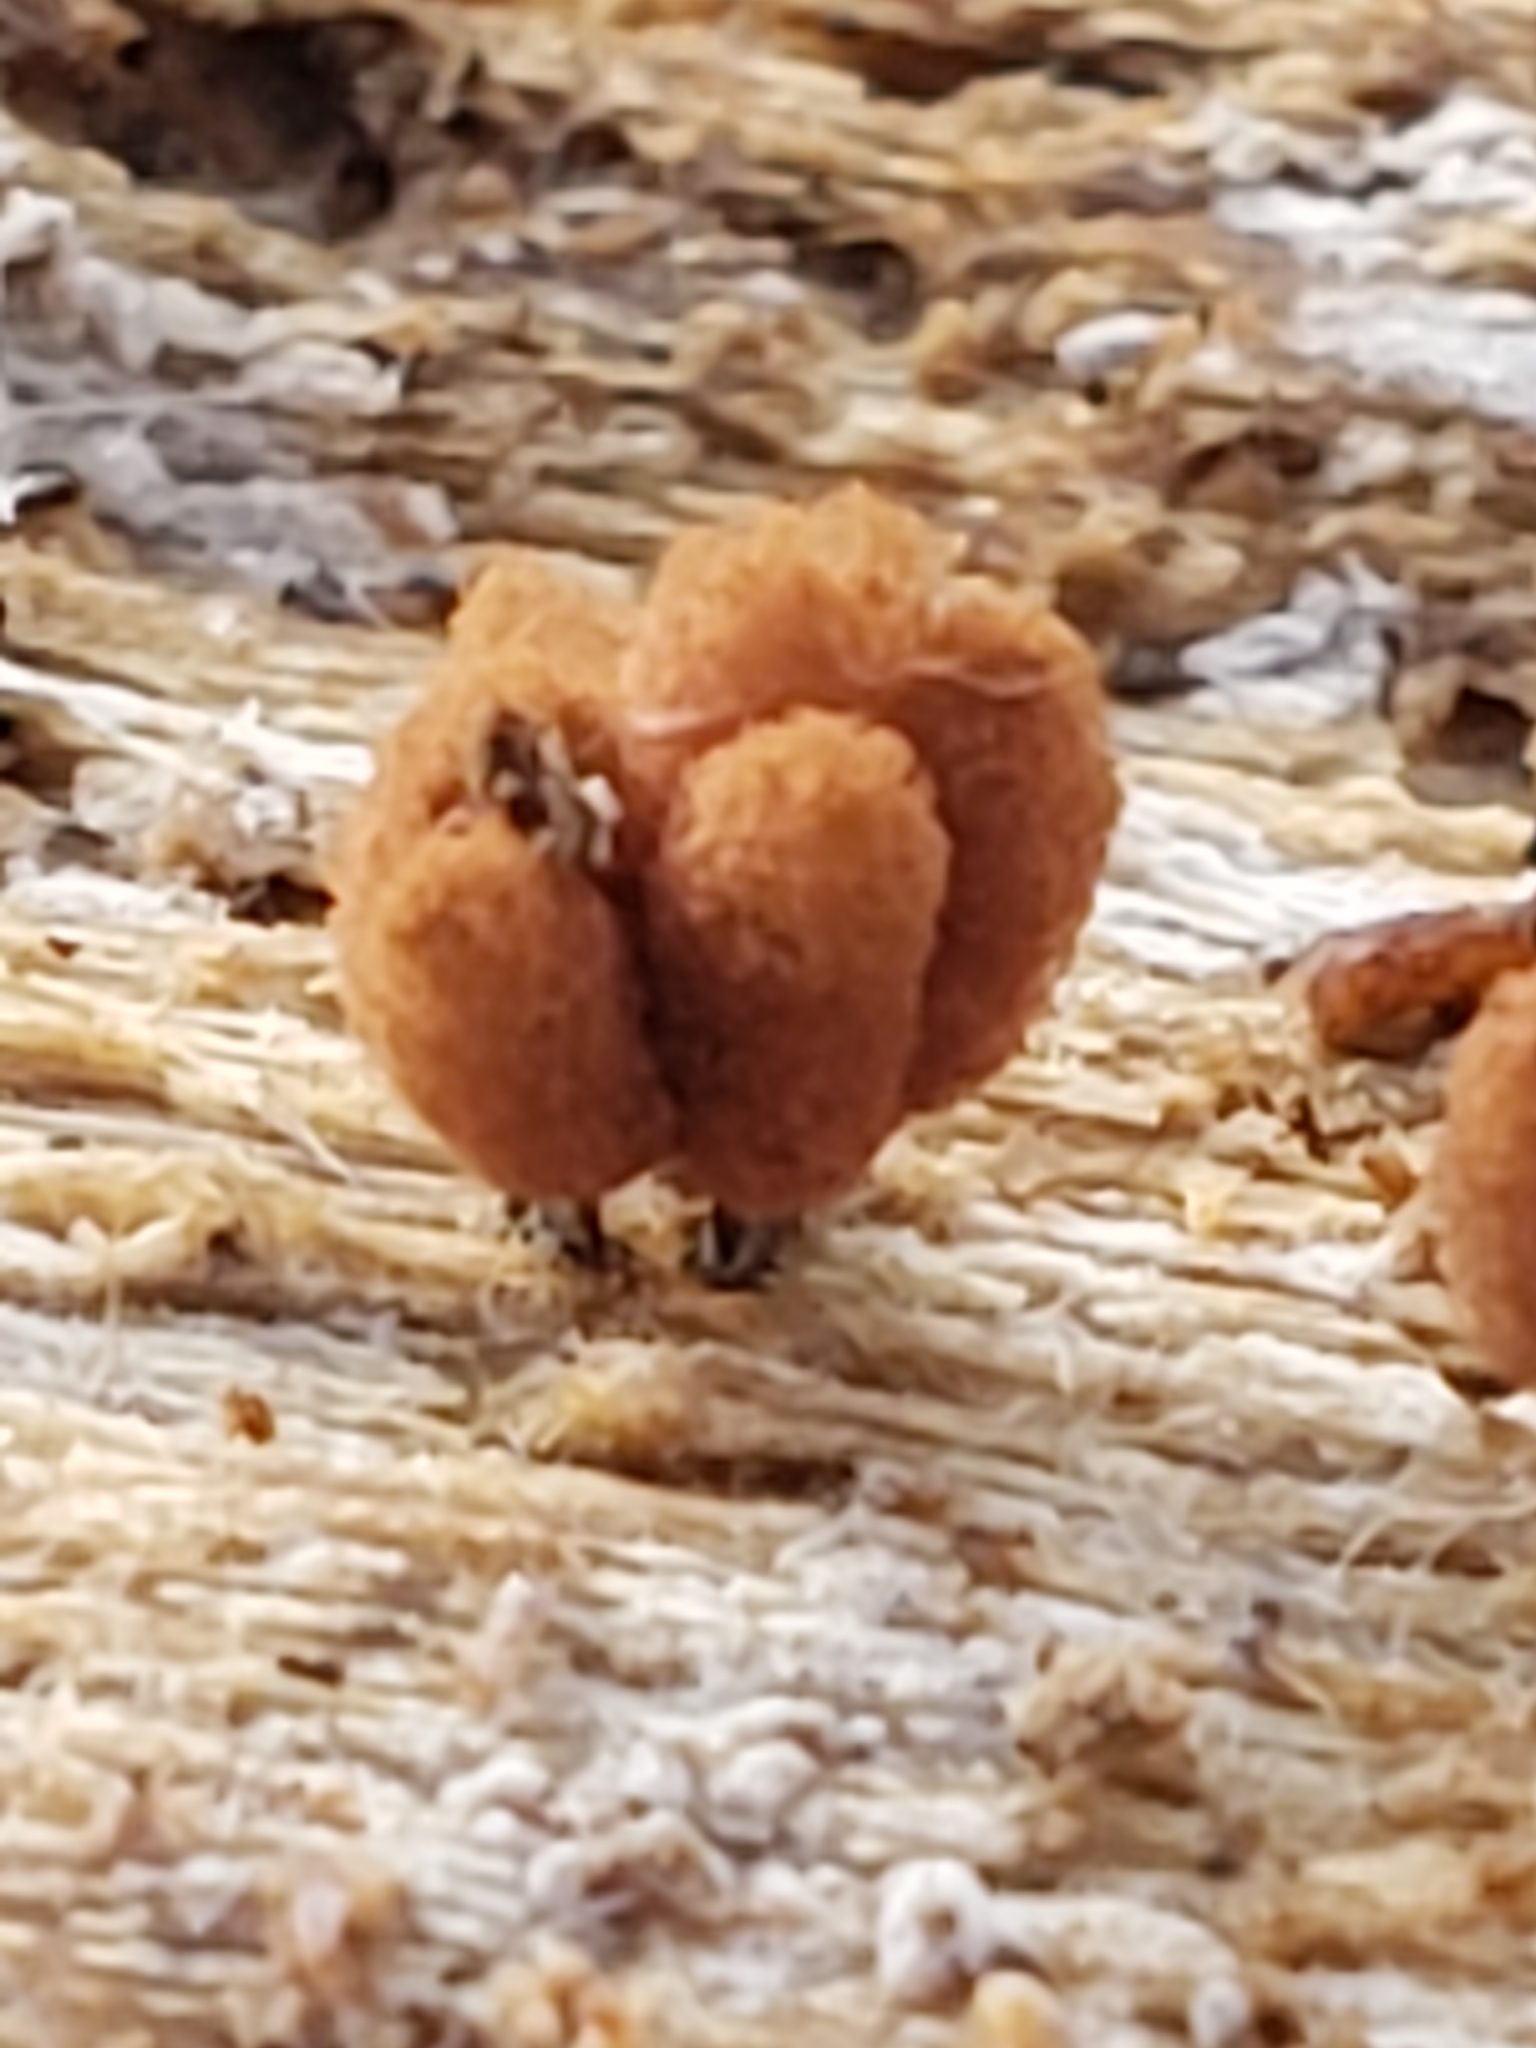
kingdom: Protozoa
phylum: Mycetozoa
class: Myxomycetes
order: Trichiales
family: Arcyriaceae
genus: Arcyria
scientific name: Arcyria denudata
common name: Carnival candy slime mold
